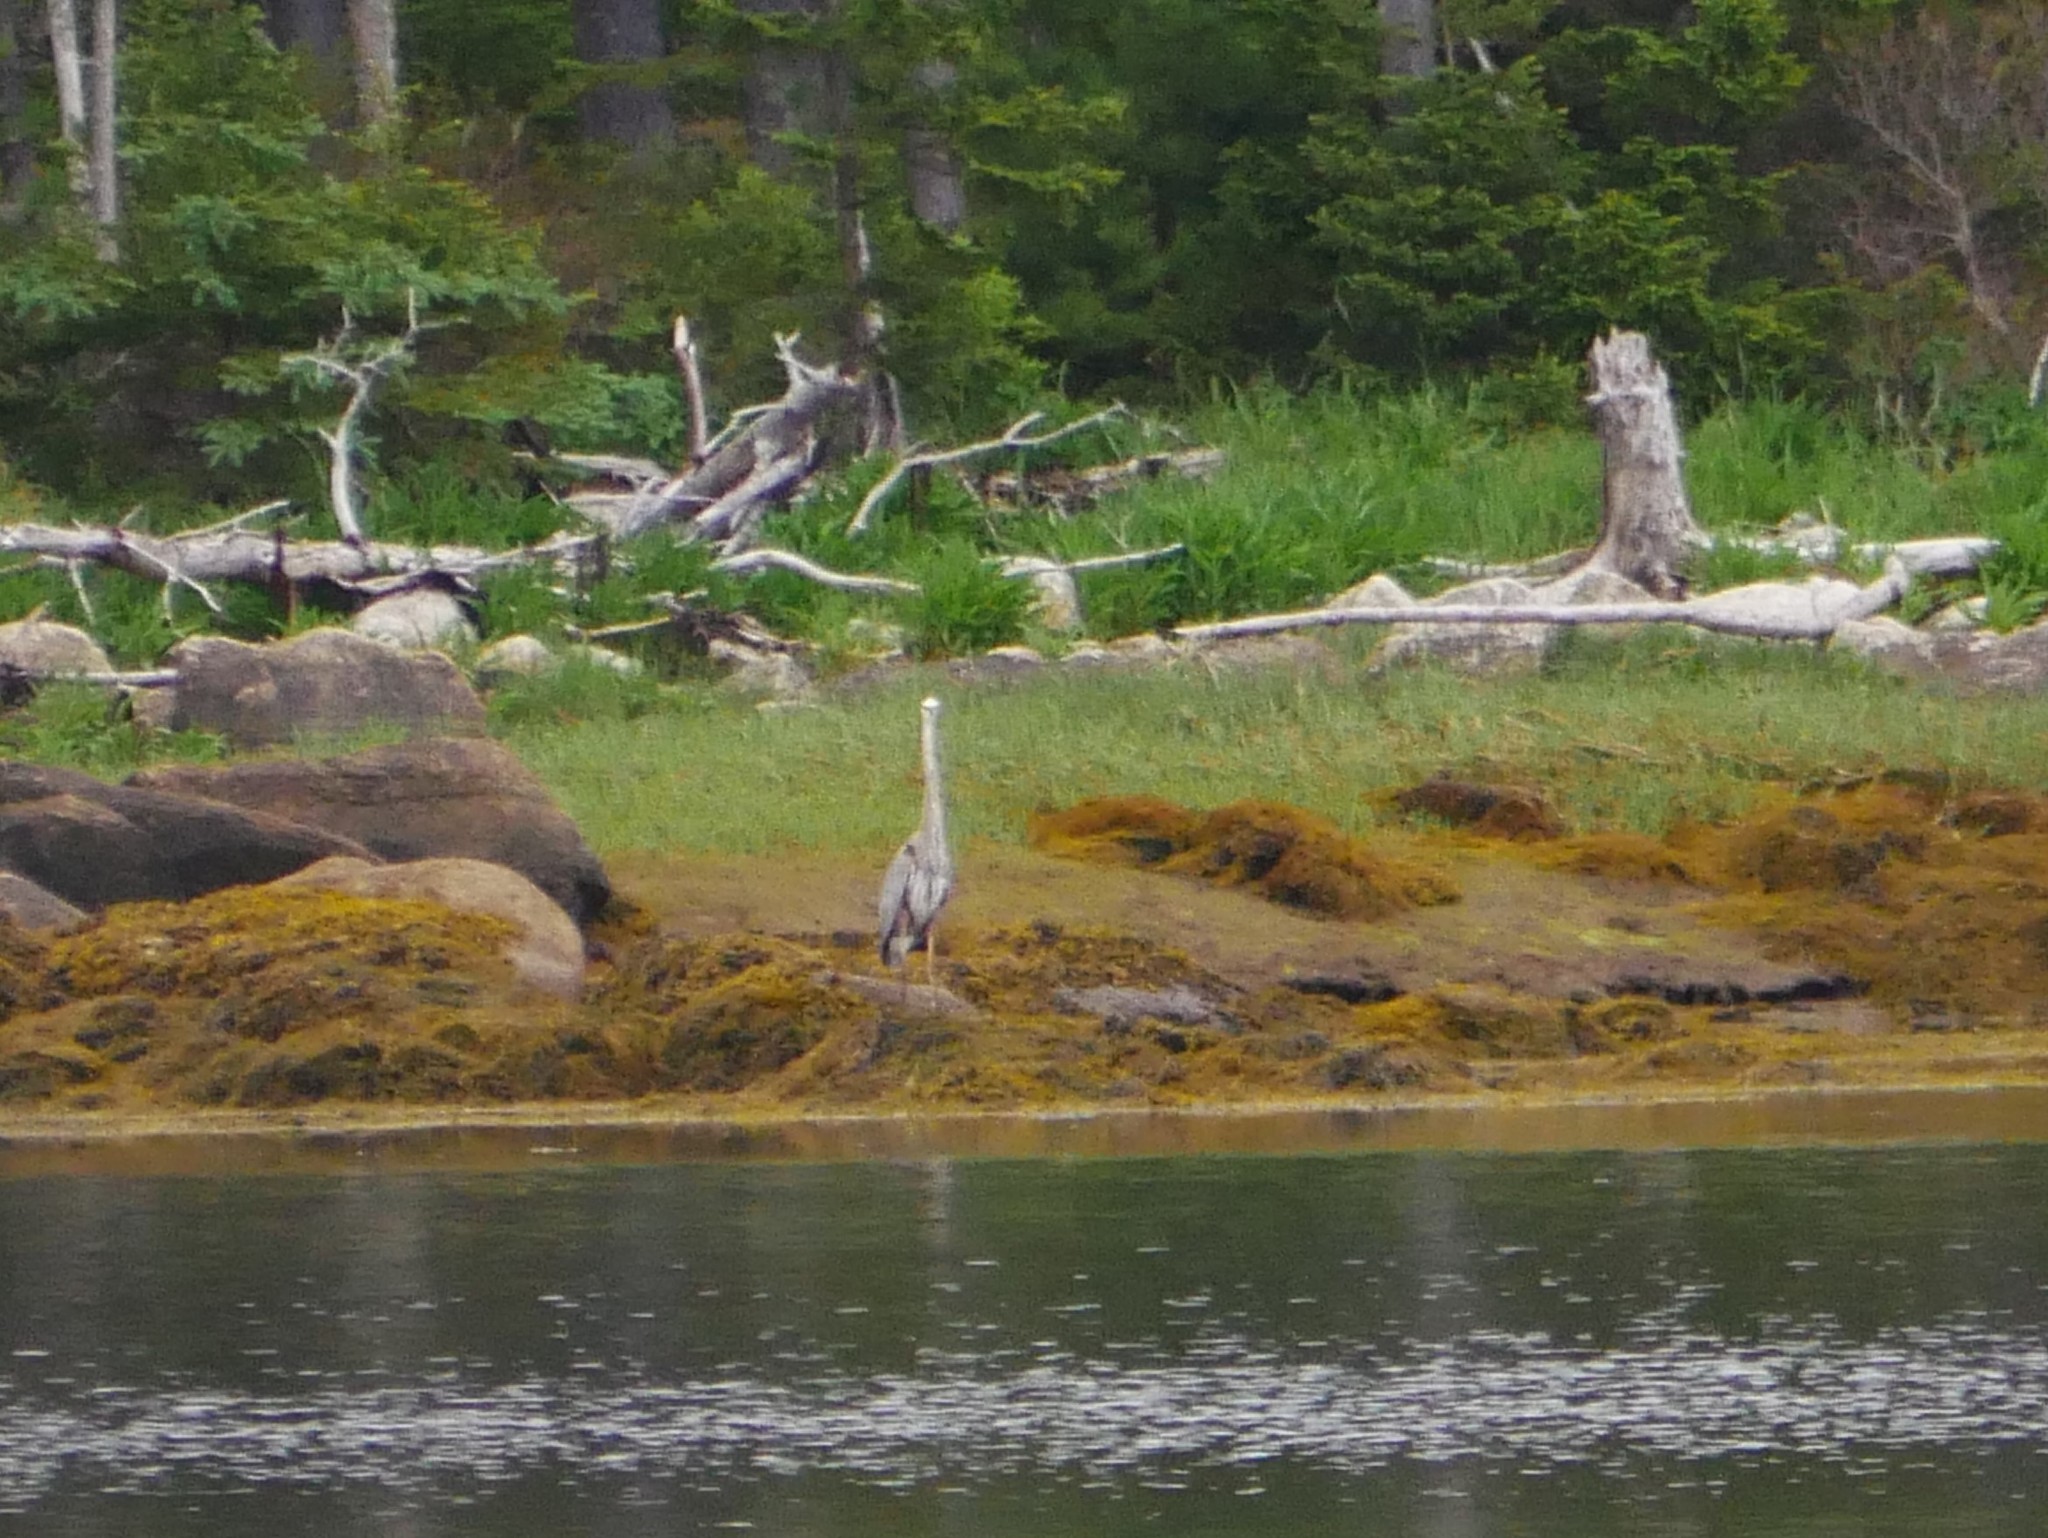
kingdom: Animalia
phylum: Chordata
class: Aves
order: Pelecaniformes
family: Ardeidae
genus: Ardea
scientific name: Ardea herodias
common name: Great blue heron
